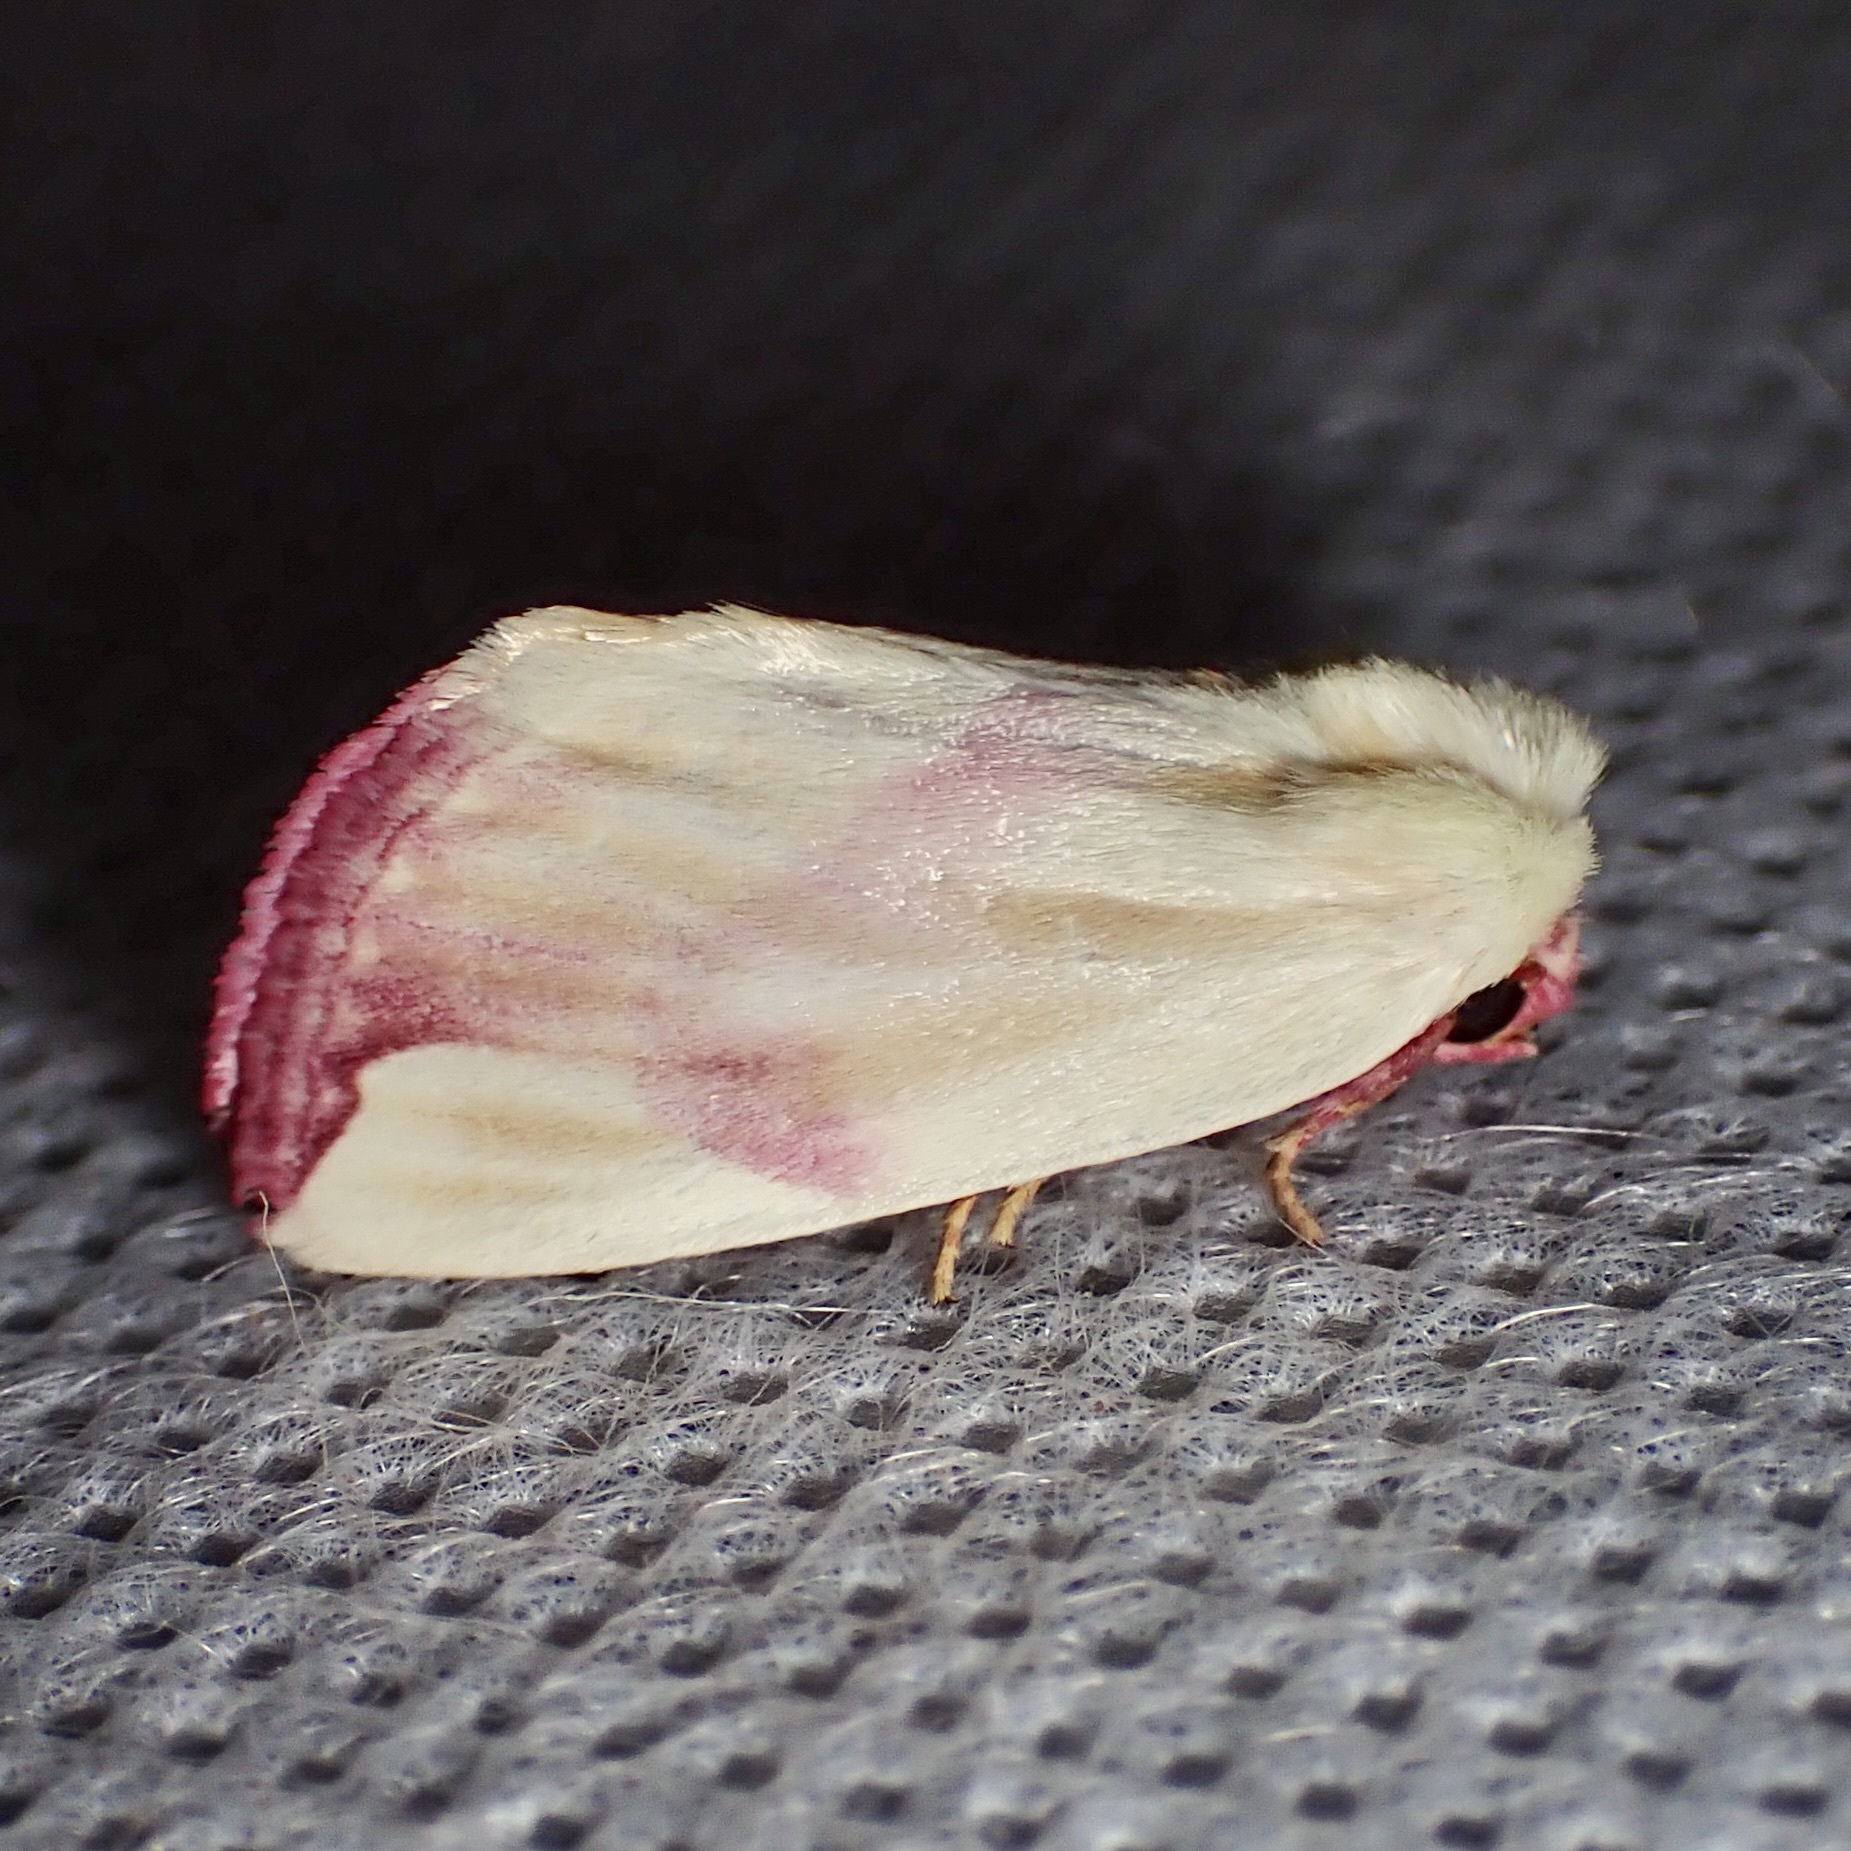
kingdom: Animalia
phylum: Arthropoda
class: Insecta
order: Lepidoptera
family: Noctuidae
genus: Thurberiphaga
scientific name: Thurberiphaga diffusa
